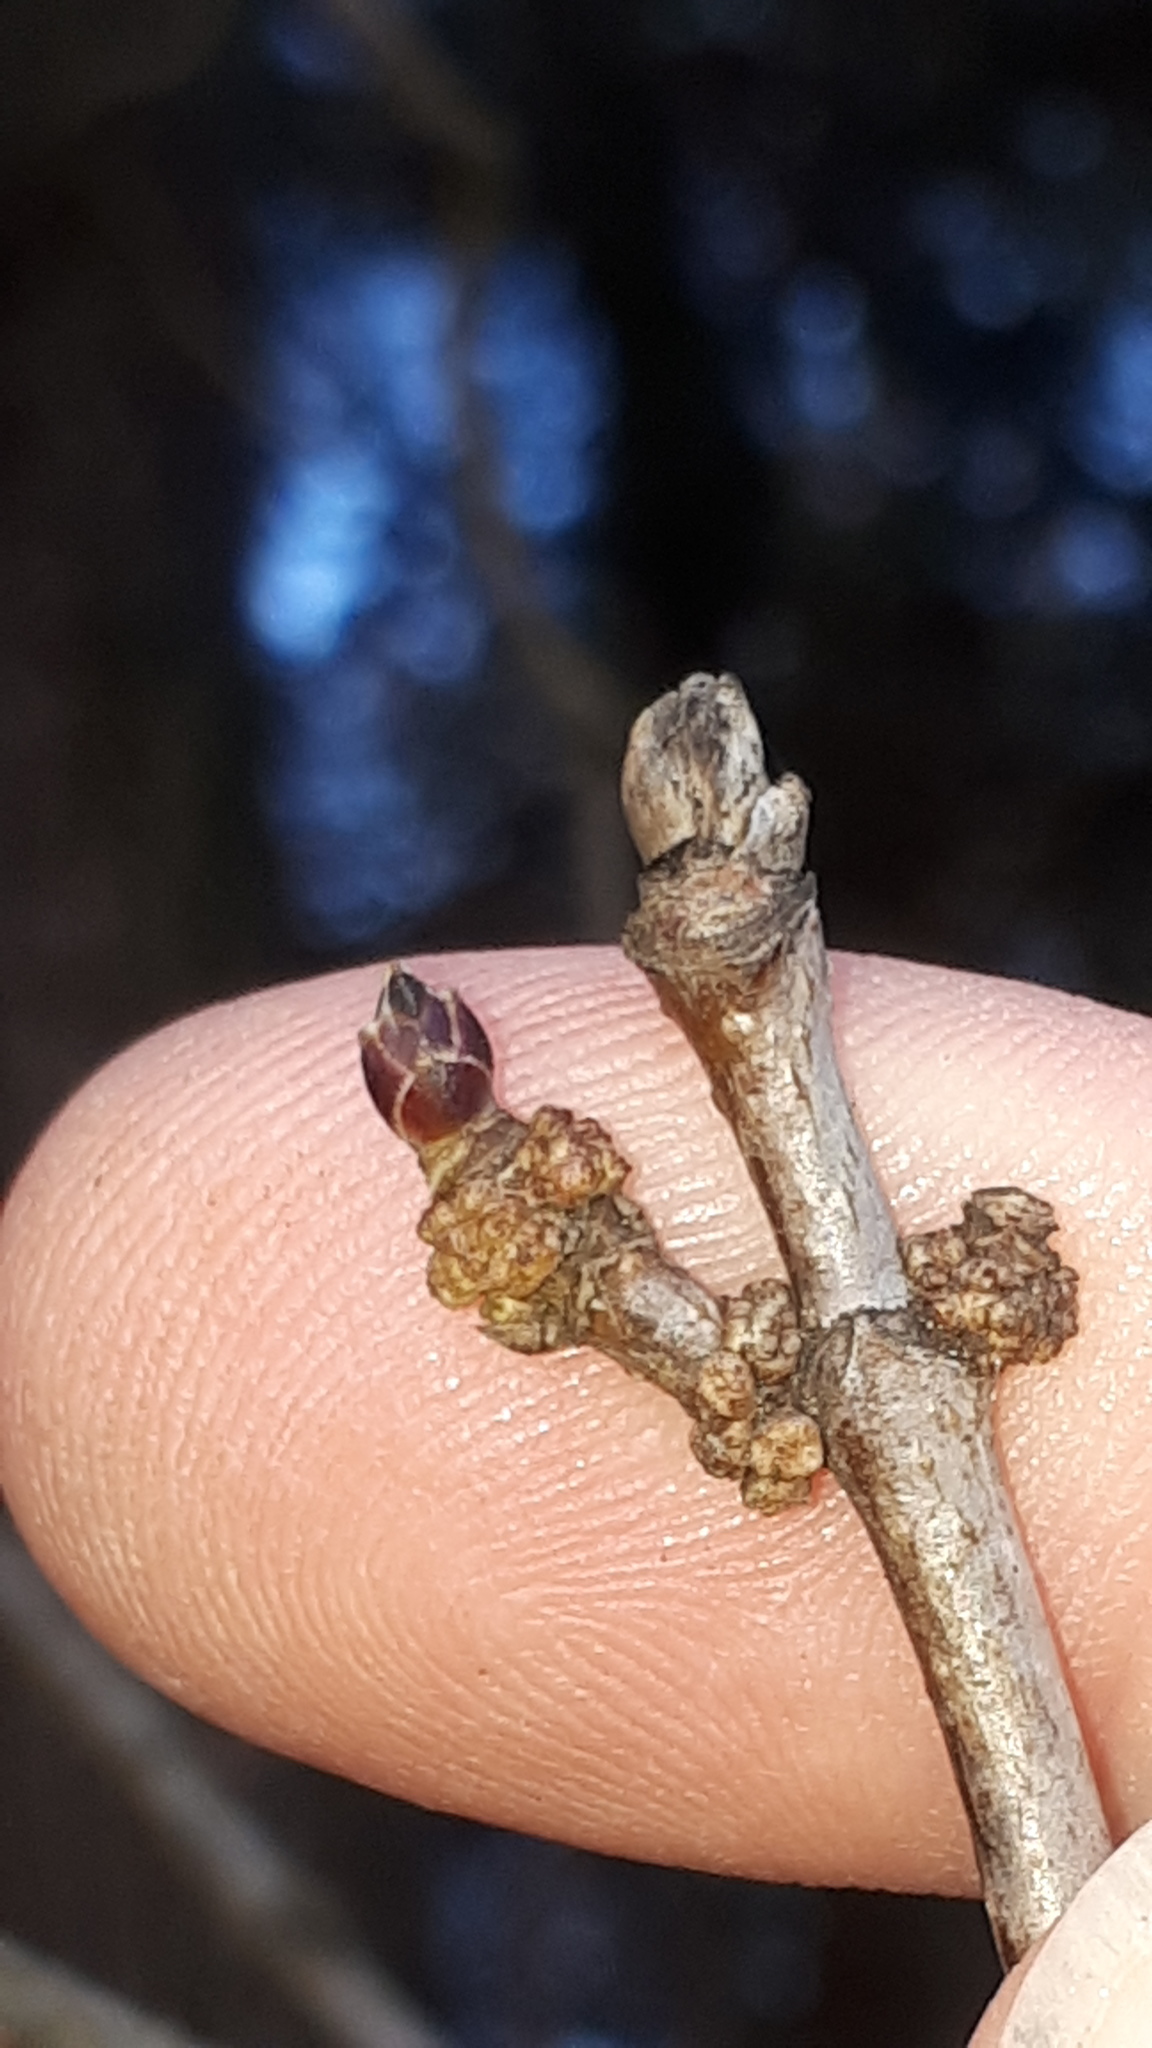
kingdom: Animalia
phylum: Arthropoda
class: Arachnida
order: Trombidiformes
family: Eriophyidae
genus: Aceria
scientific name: Aceria heteronyx
